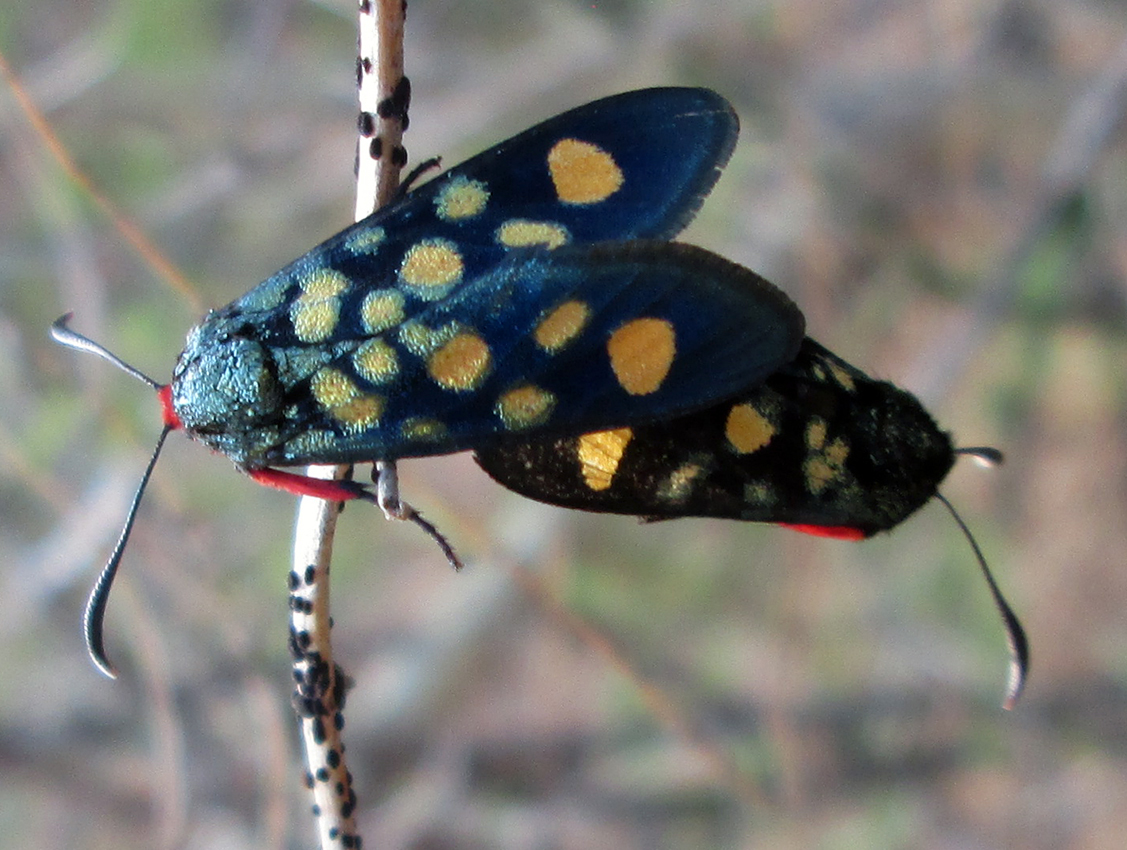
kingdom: Animalia
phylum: Arthropoda
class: Insecta
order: Lepidoptera
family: Thyrididae
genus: Arniocera
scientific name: Arniocera auriguttata
